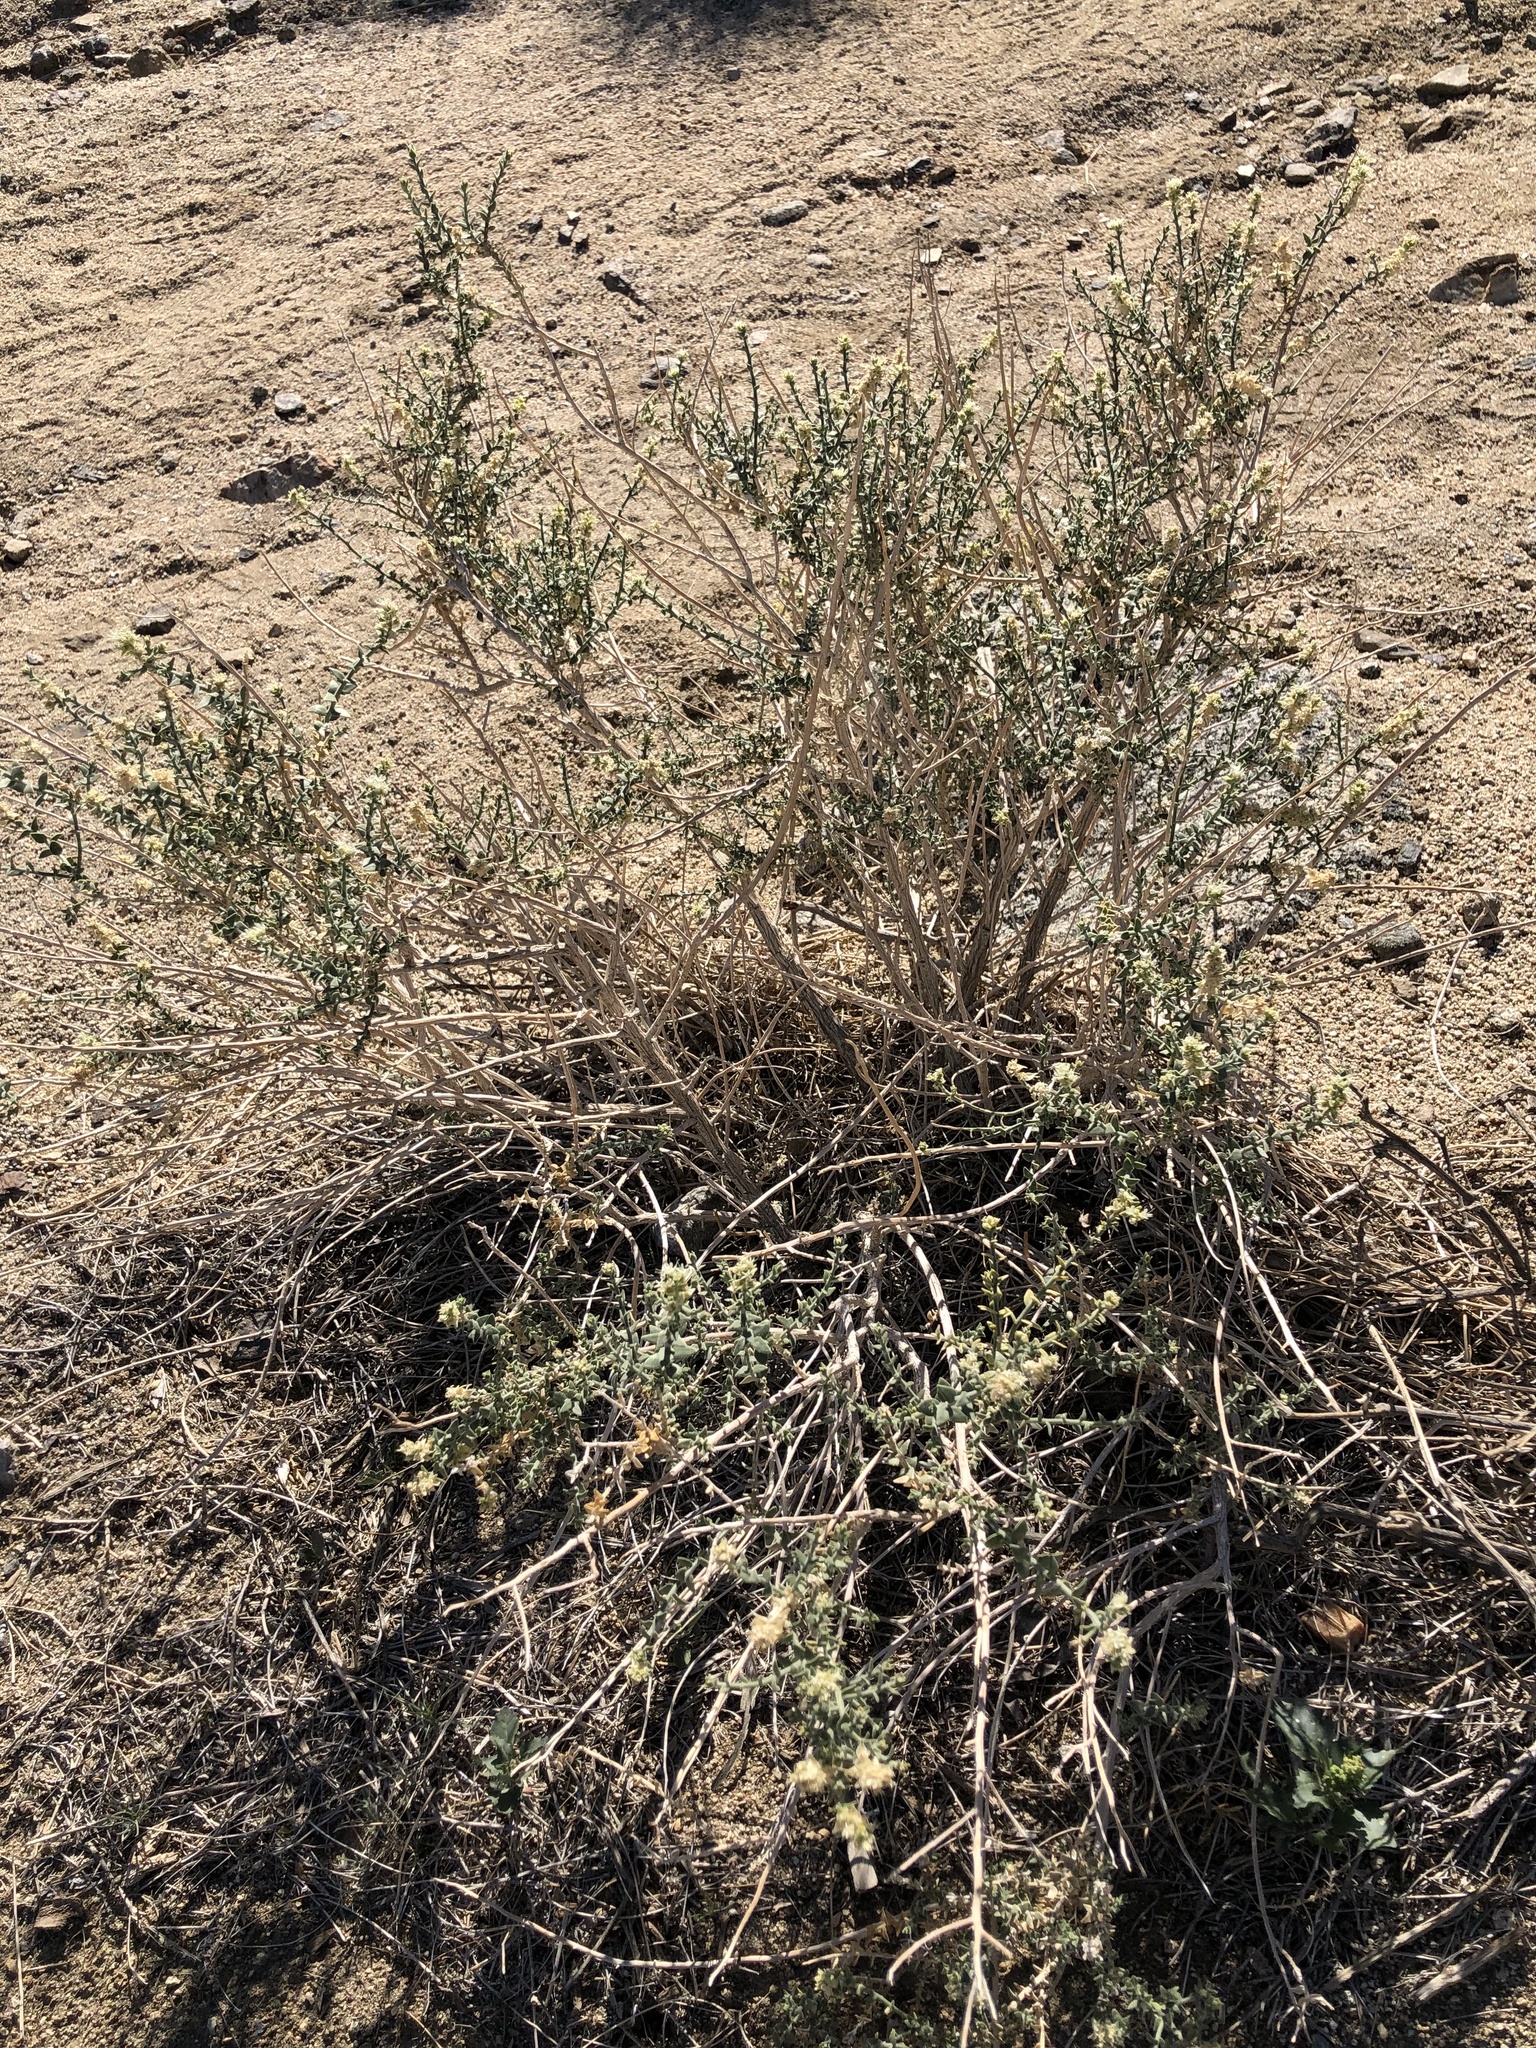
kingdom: Plantae
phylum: Tracheophyta
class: Magnoliopsida
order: Cornales
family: Loasaceae
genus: Petalonyx
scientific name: Petalonyx thurberi
